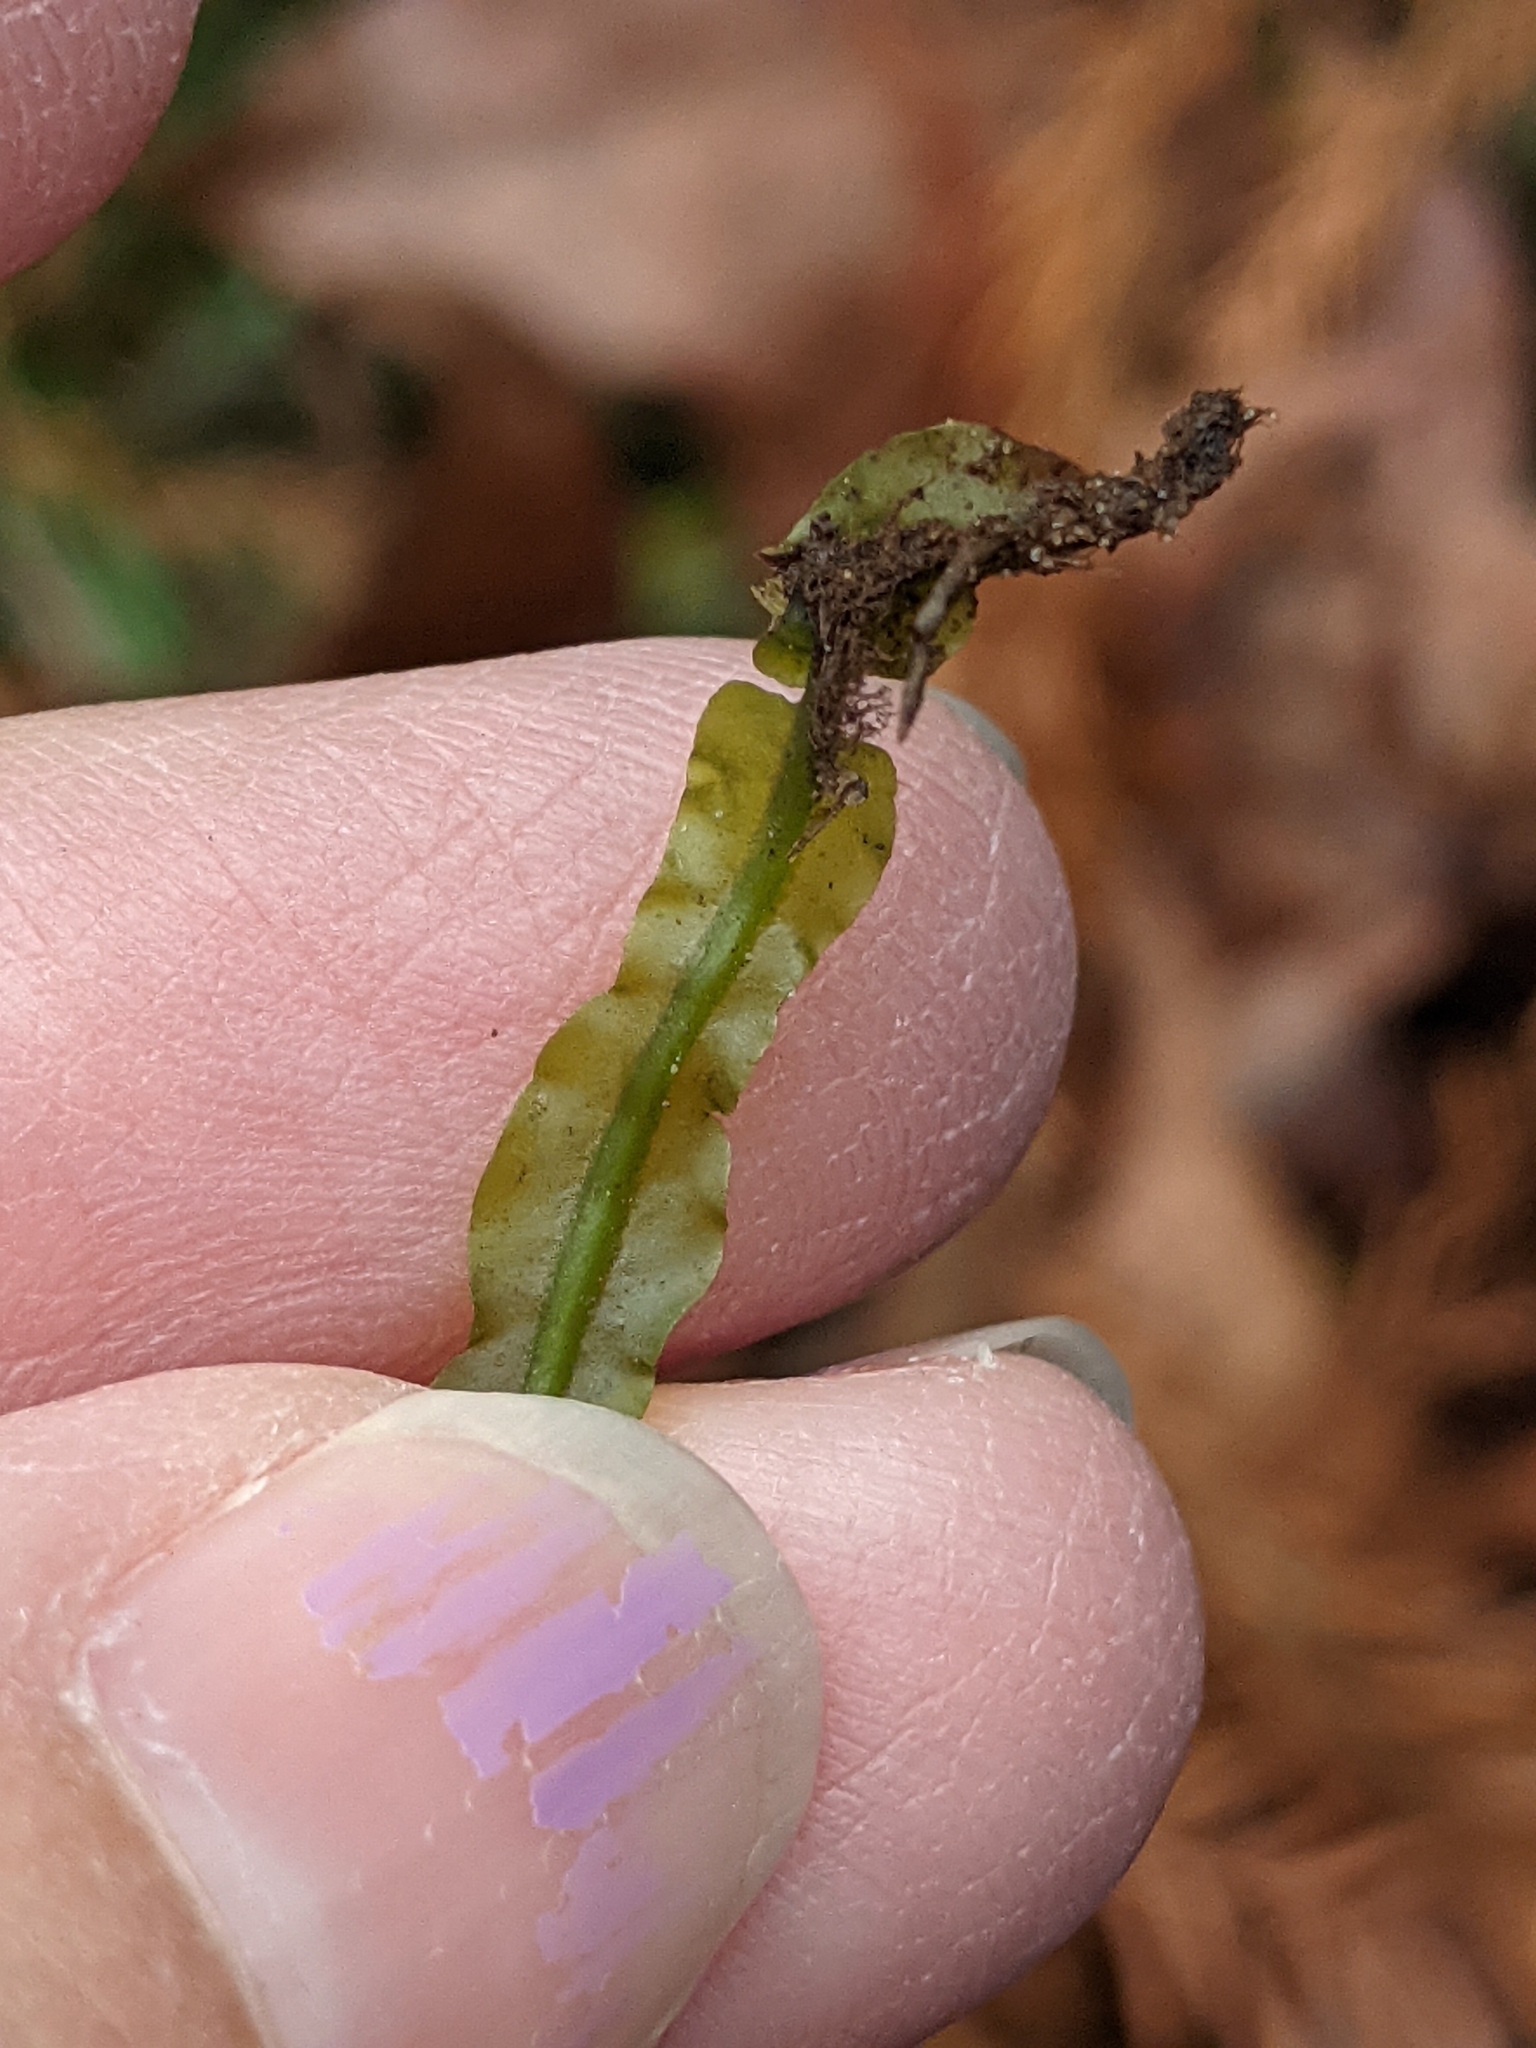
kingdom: Plantae
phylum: Marchantiophyta
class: Jungermanniopsida
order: Pallaviciniales
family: Pallaviciniaceae
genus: Pallavicinia
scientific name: Pallavicinia lyellii
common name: Veilwort
